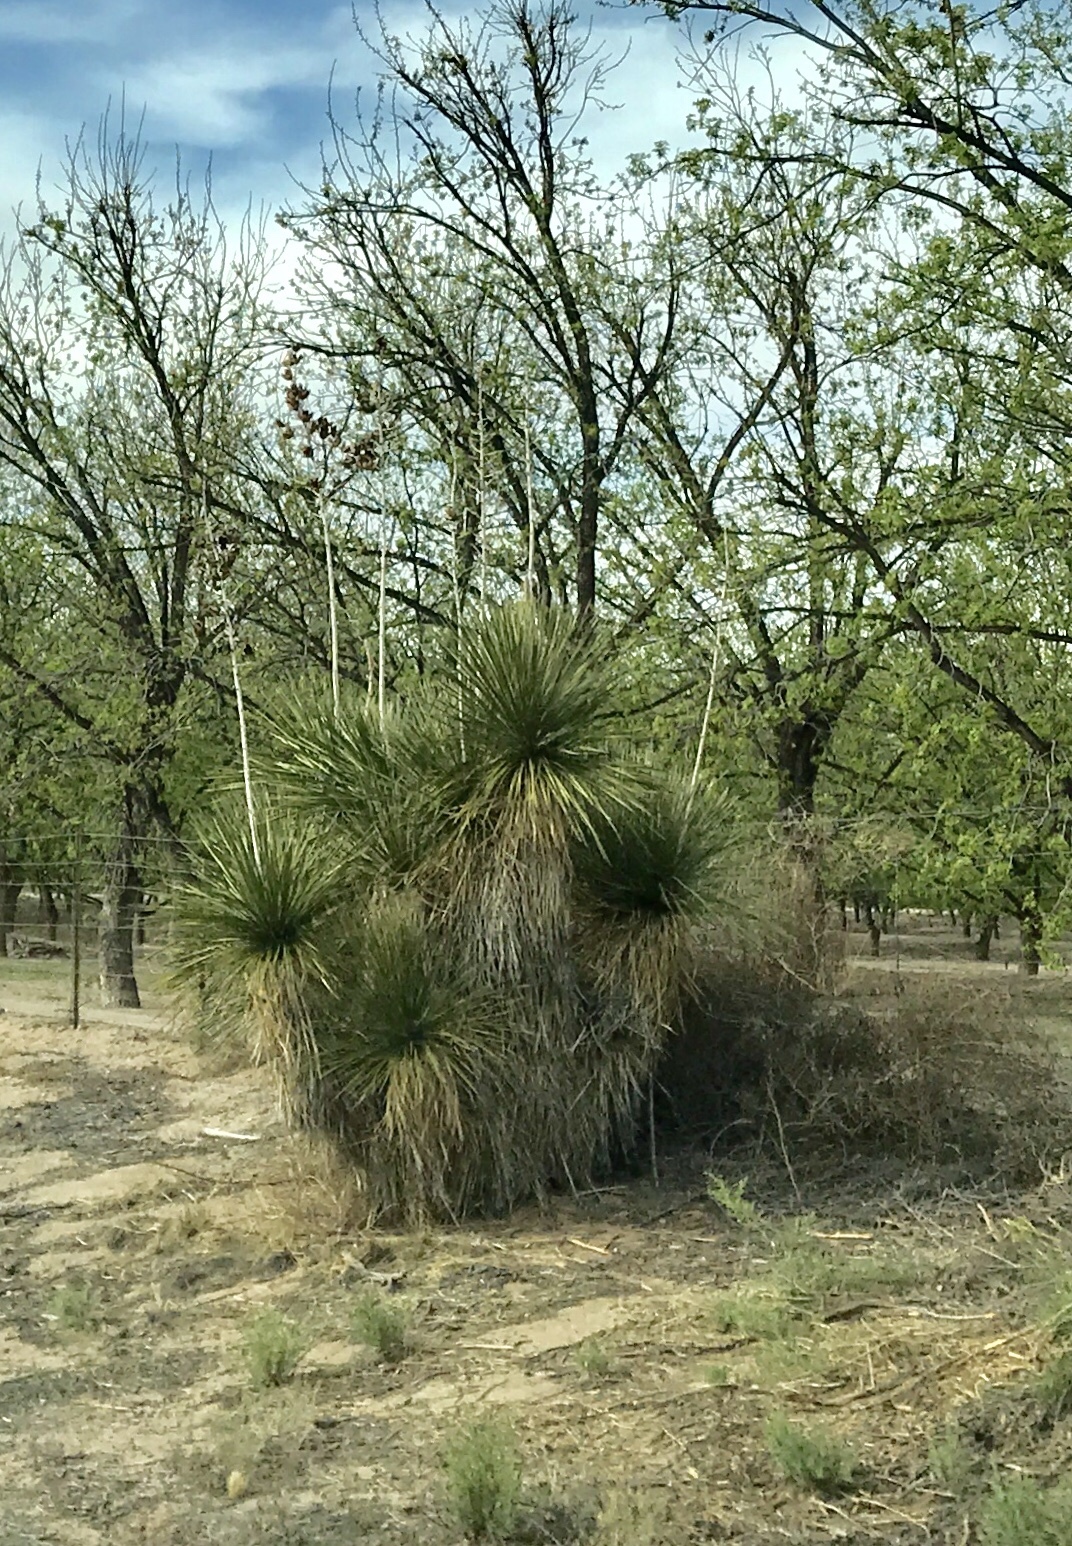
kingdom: Plantae
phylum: Tracheophyta
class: Liliopsida
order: Asparagales
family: Asparagaceae
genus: Yucca
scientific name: Yucca elata
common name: Palmella
